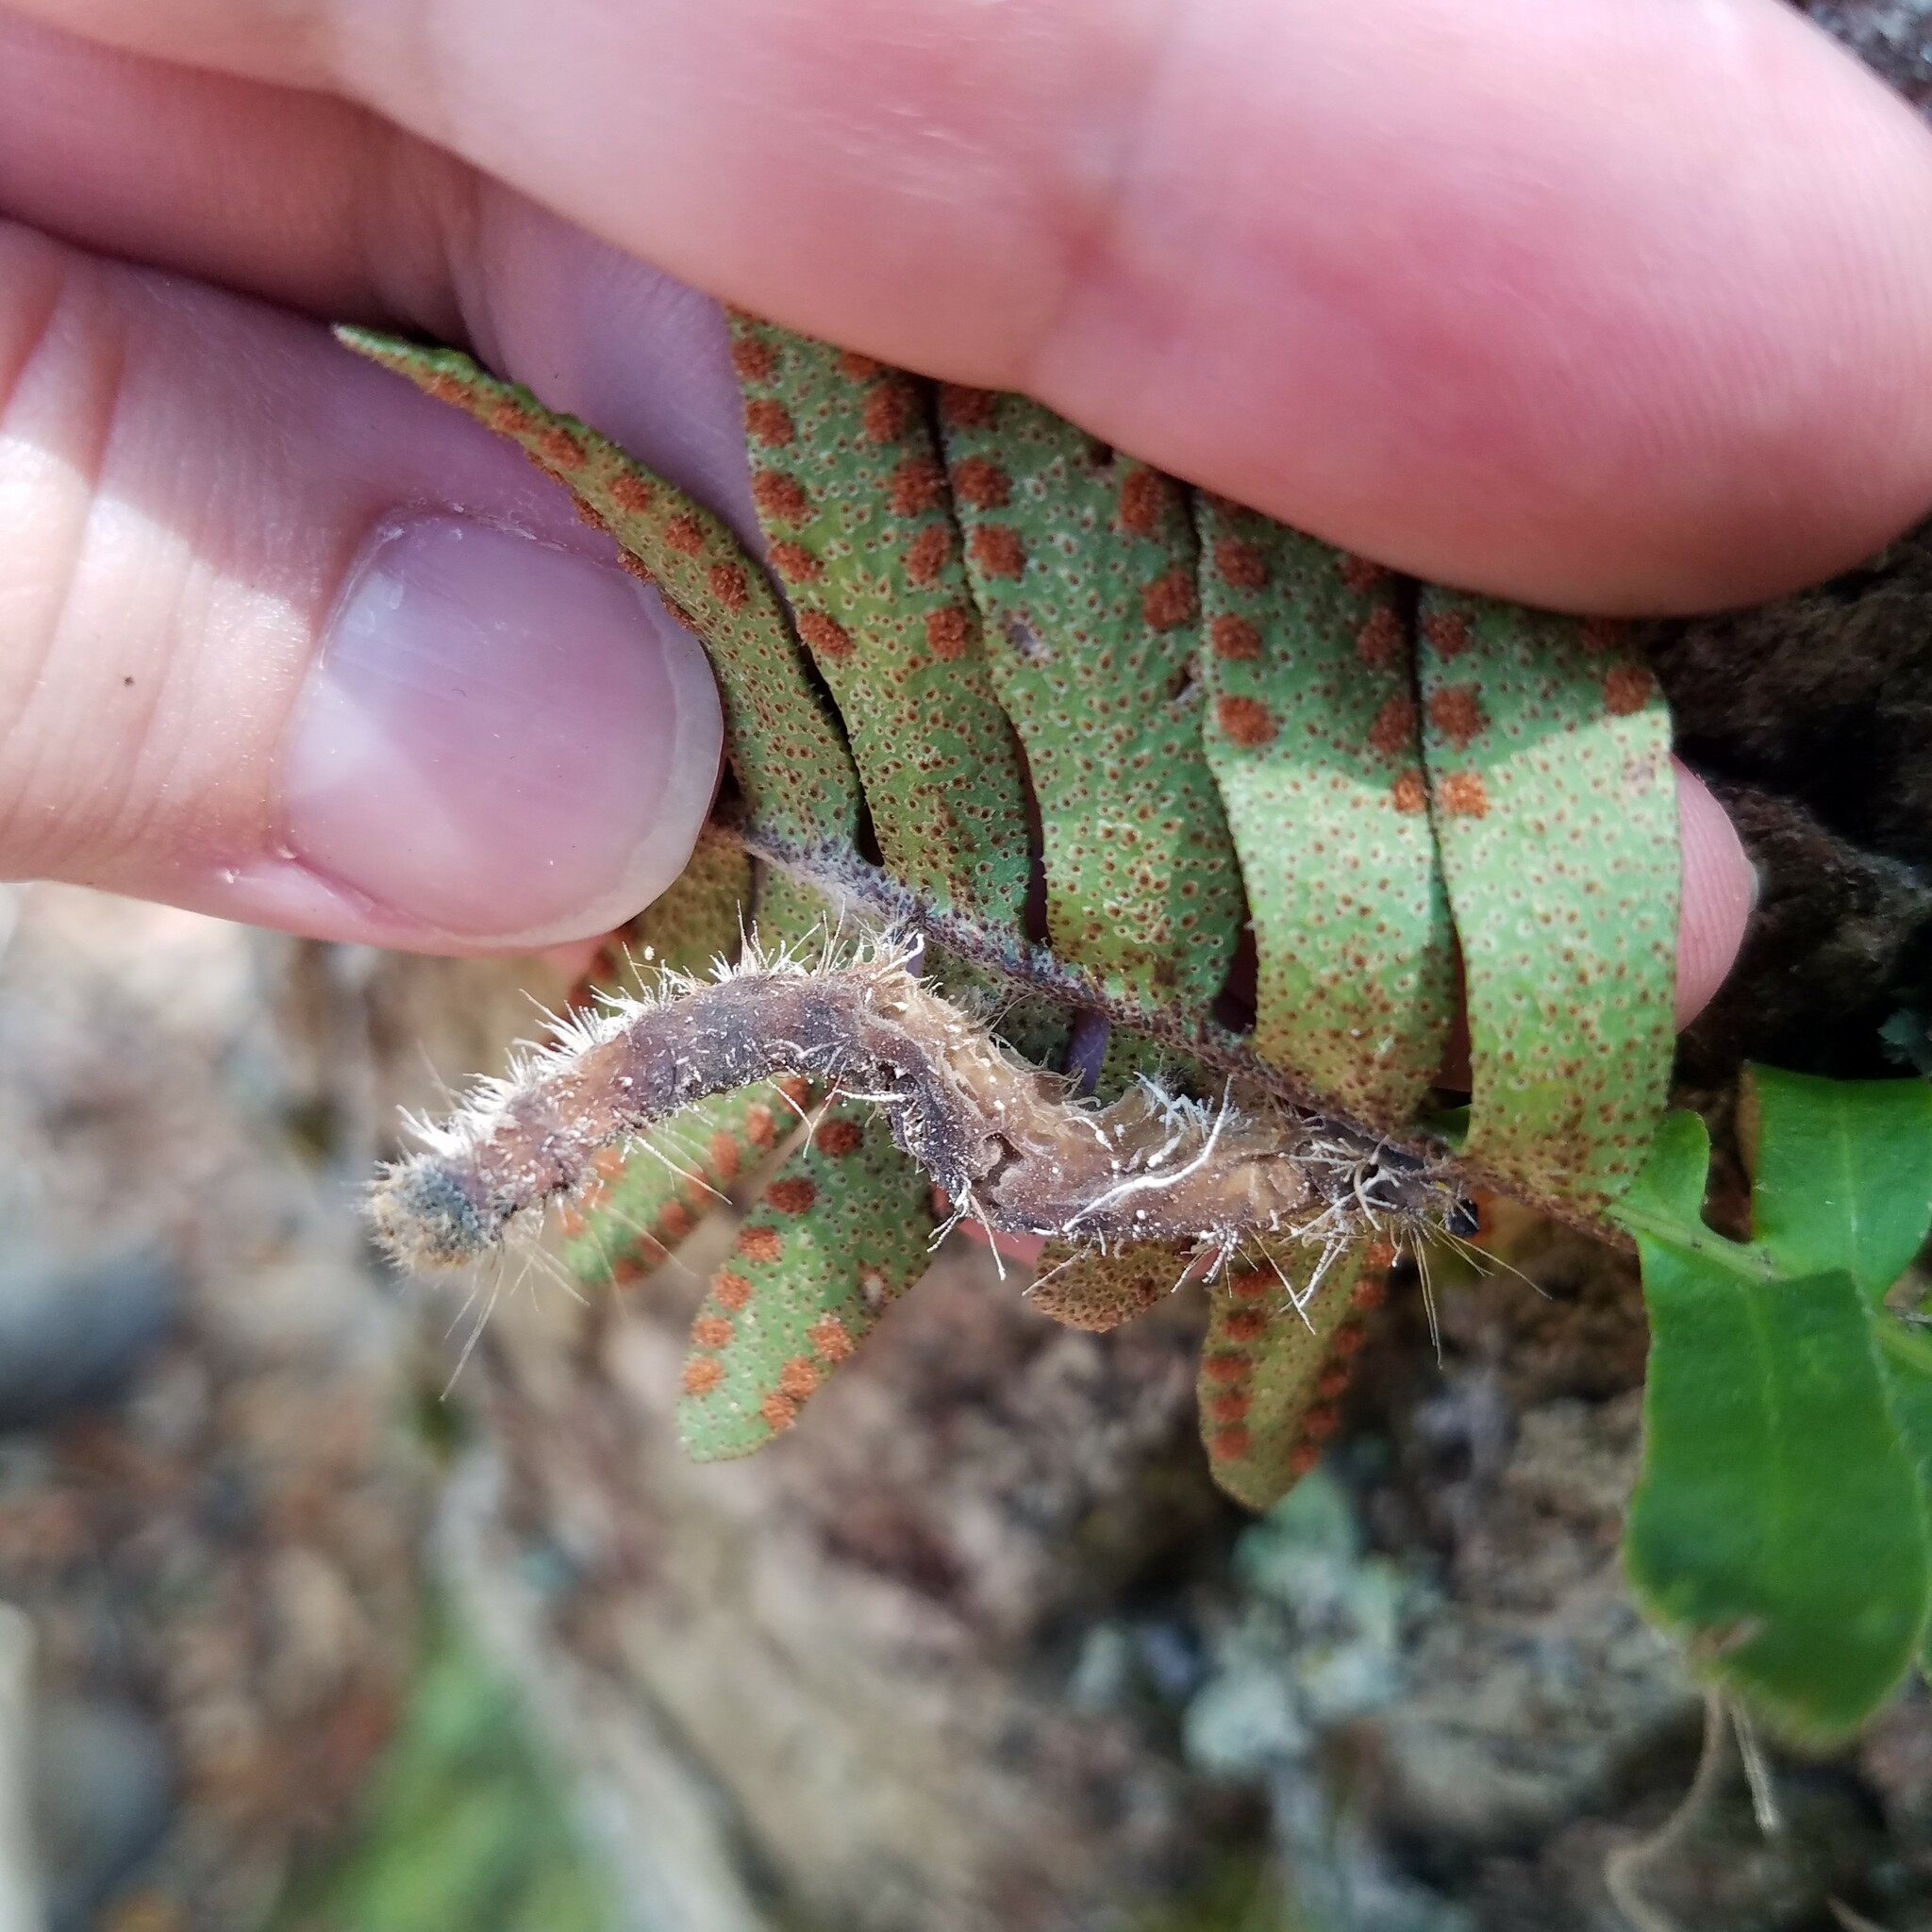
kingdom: Plantae
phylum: Tracheophyta
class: Polypodiopsida
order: Polypodiales
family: Polypodiaceae
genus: Pleopeltis
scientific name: Pleopeltis michauxiana
